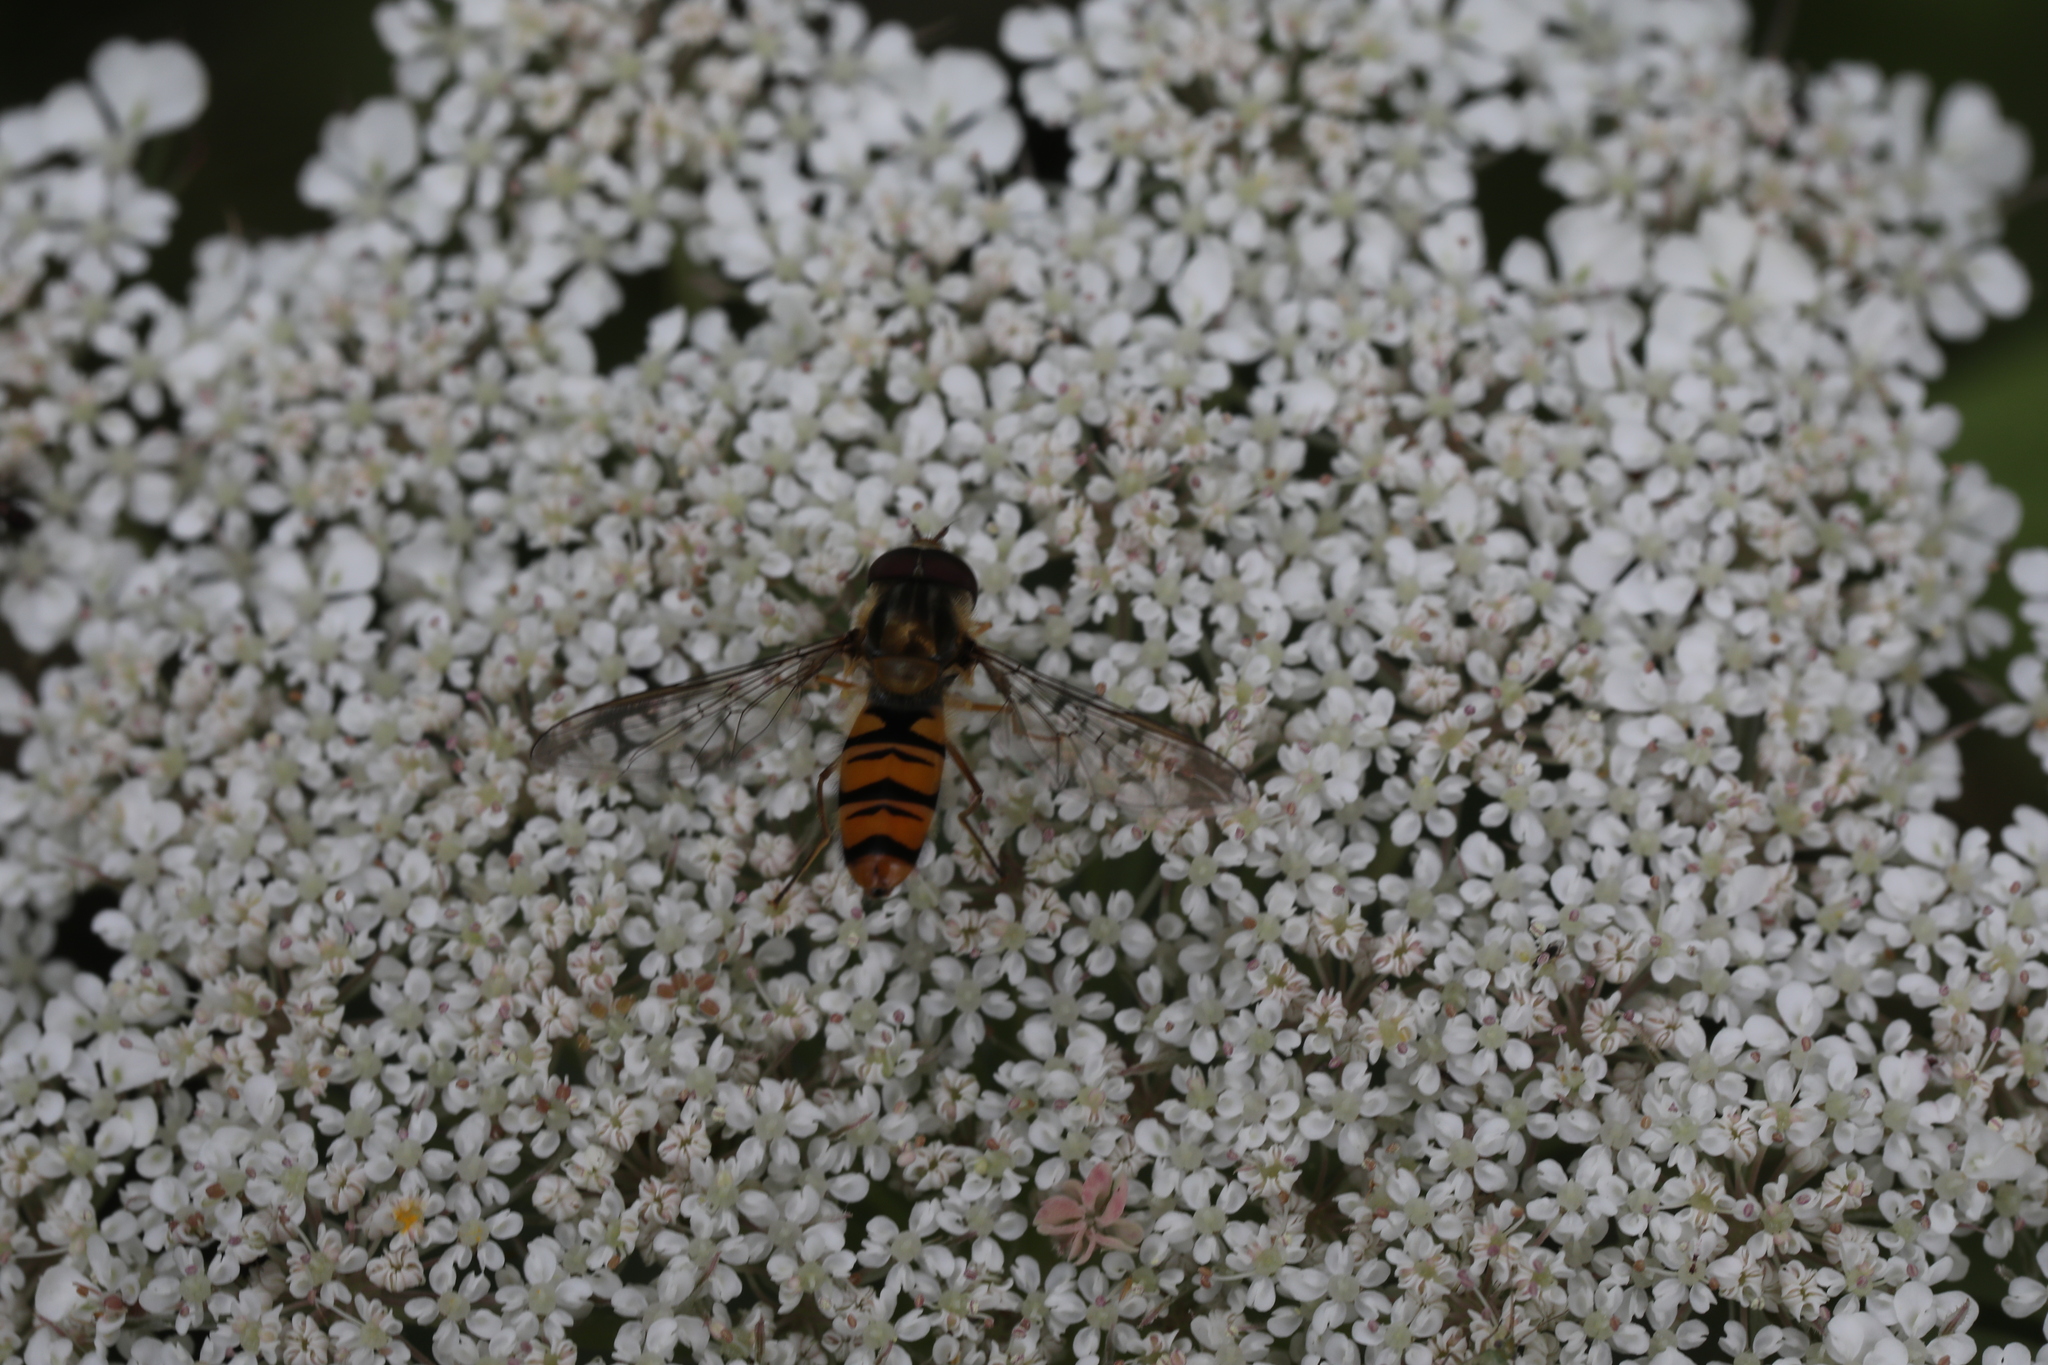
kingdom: Animalia
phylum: Arthropoda
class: Insecta
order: Diptera
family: Syrphidae
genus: Episyrphus
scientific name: Episyrphus balteatus
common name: Marmalade hoverfly
